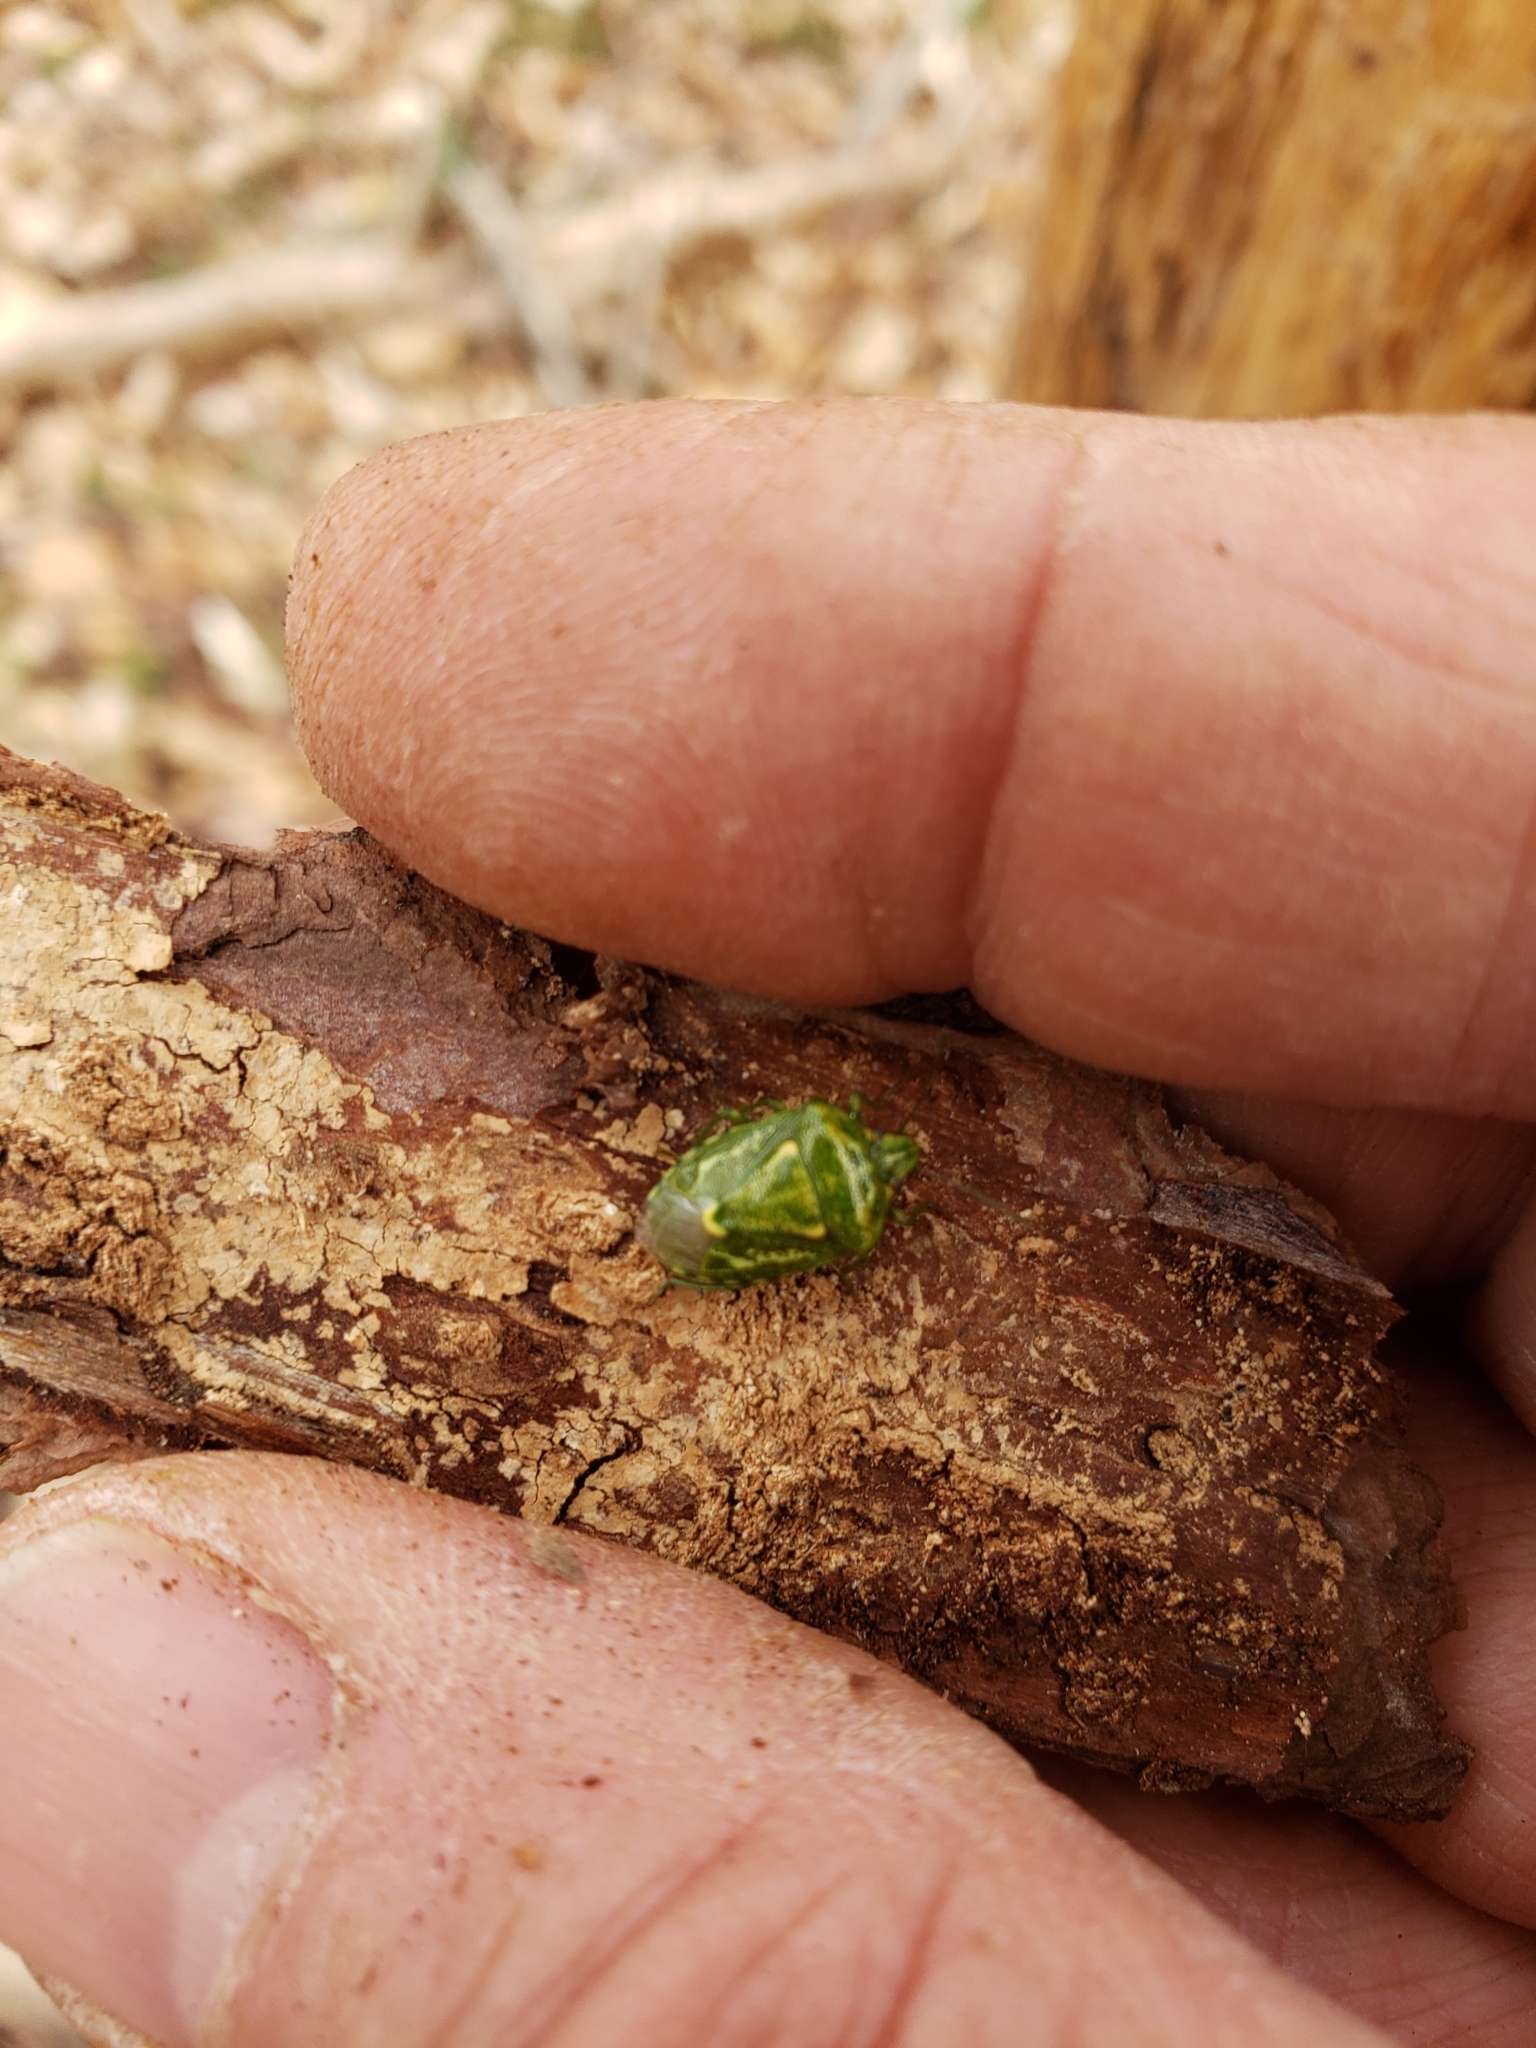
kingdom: Animalia
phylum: Arthropoda
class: Insecta
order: Hemiptera
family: Pentatomidae
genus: Banasa
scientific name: Banasa euchlora
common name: Cedar berry bug
